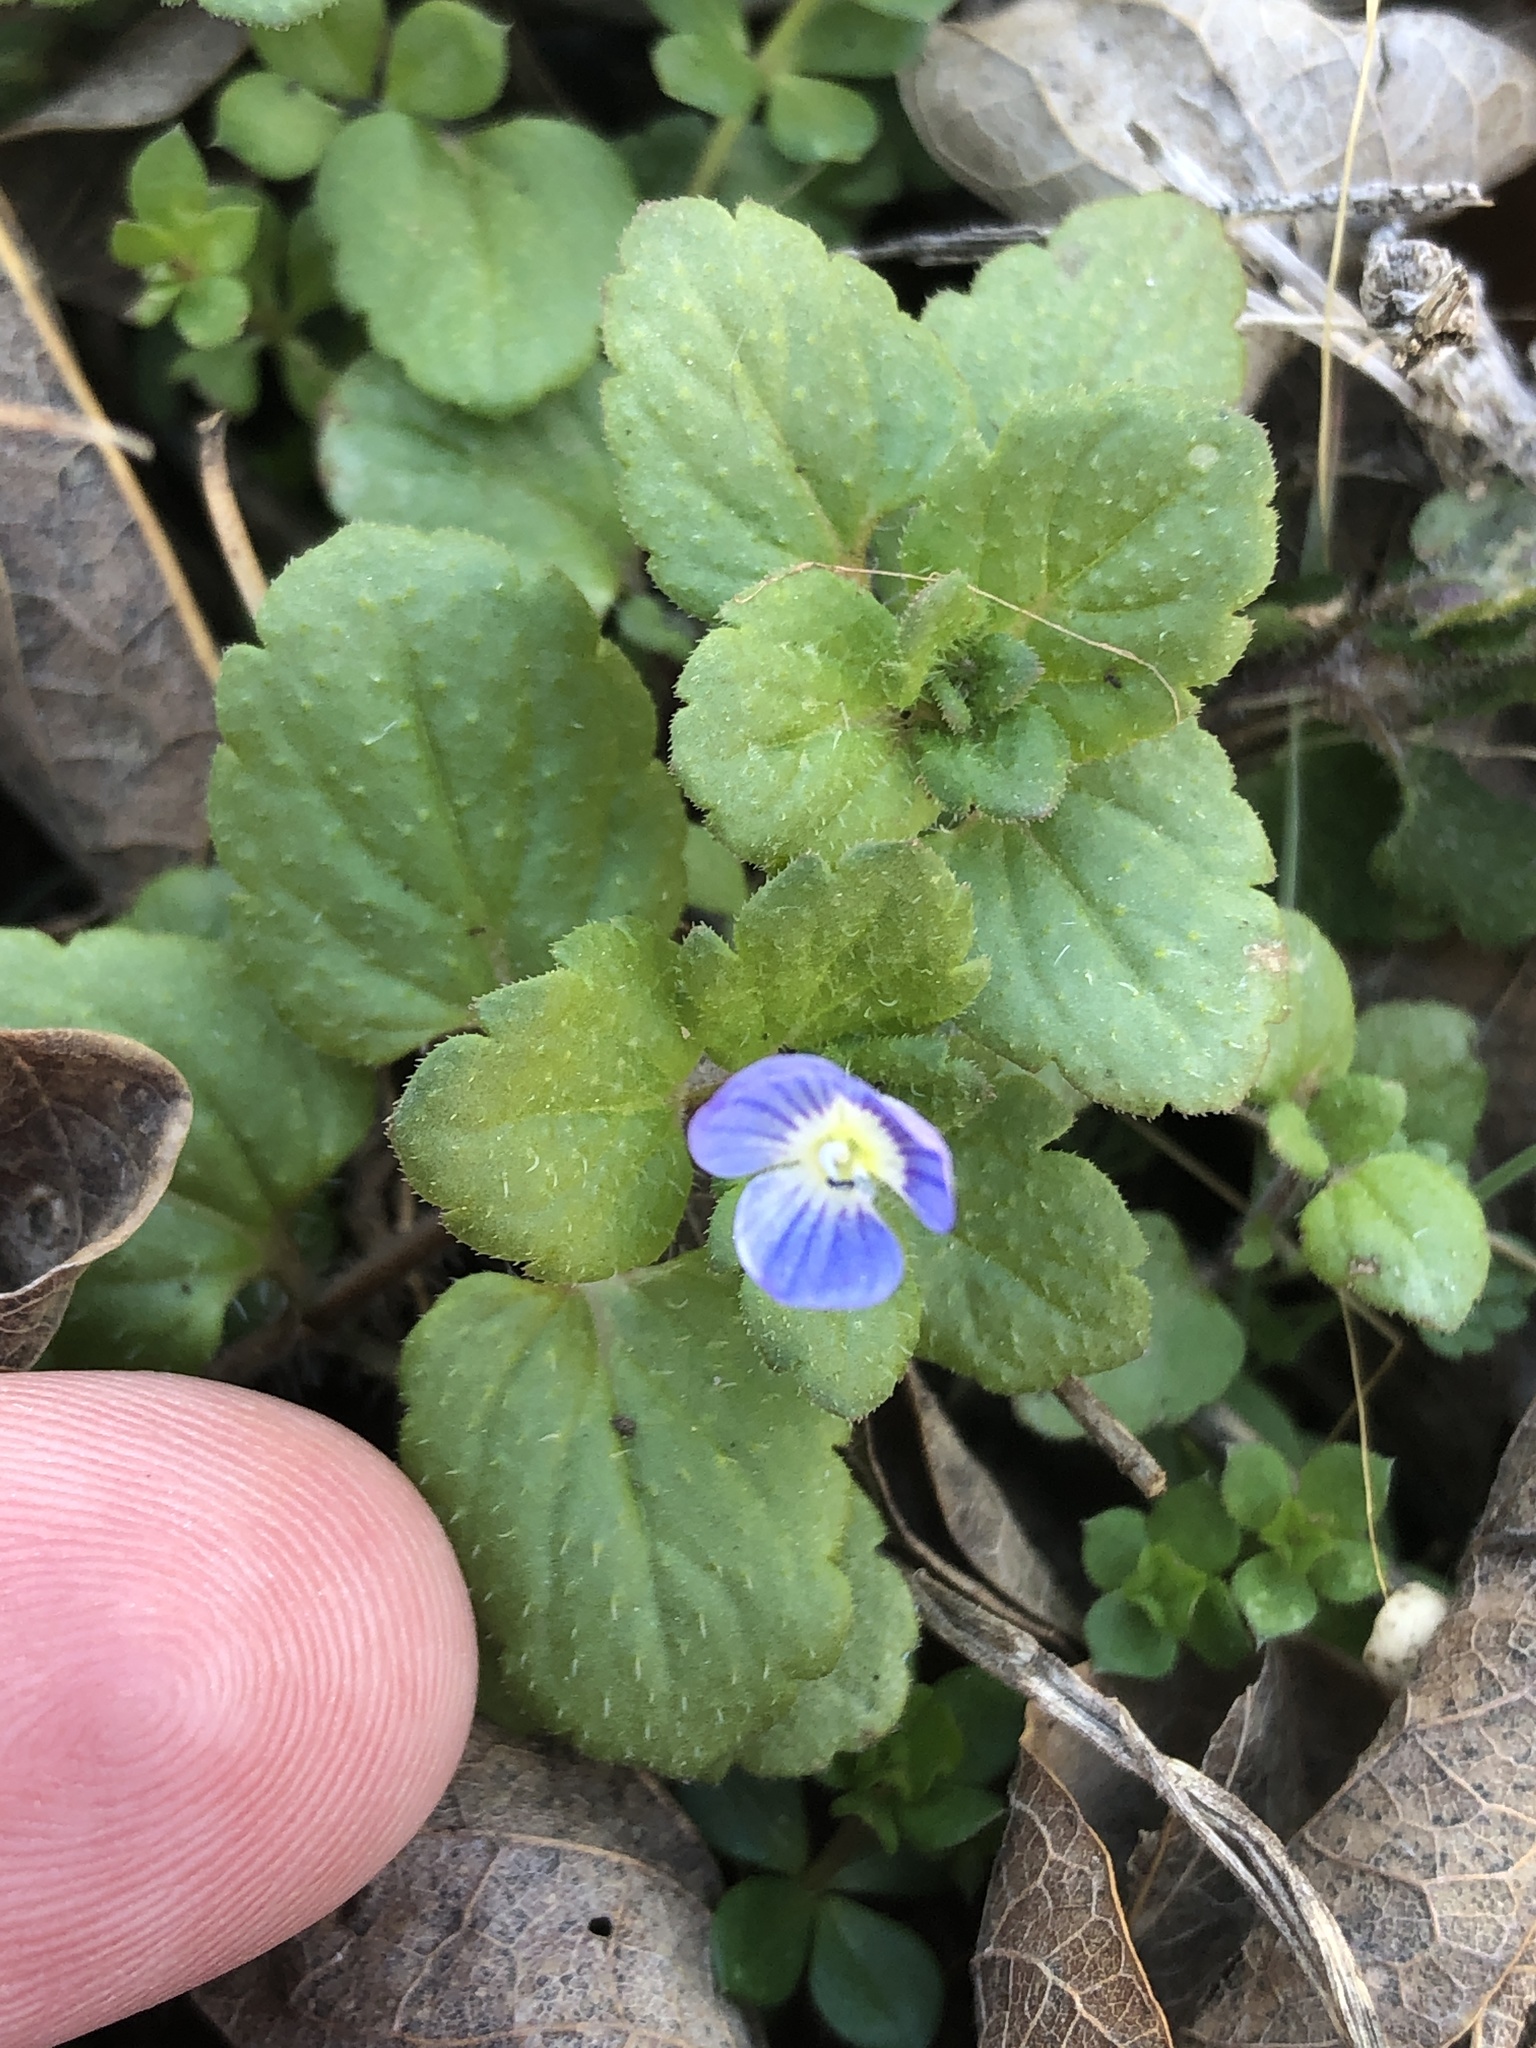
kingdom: Plantae
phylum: Tracheophyta
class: Magnoliopsida
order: Lamiales
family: Plantaginaceae
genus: Veronica
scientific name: Veronica persica
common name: Common field-speedwell
